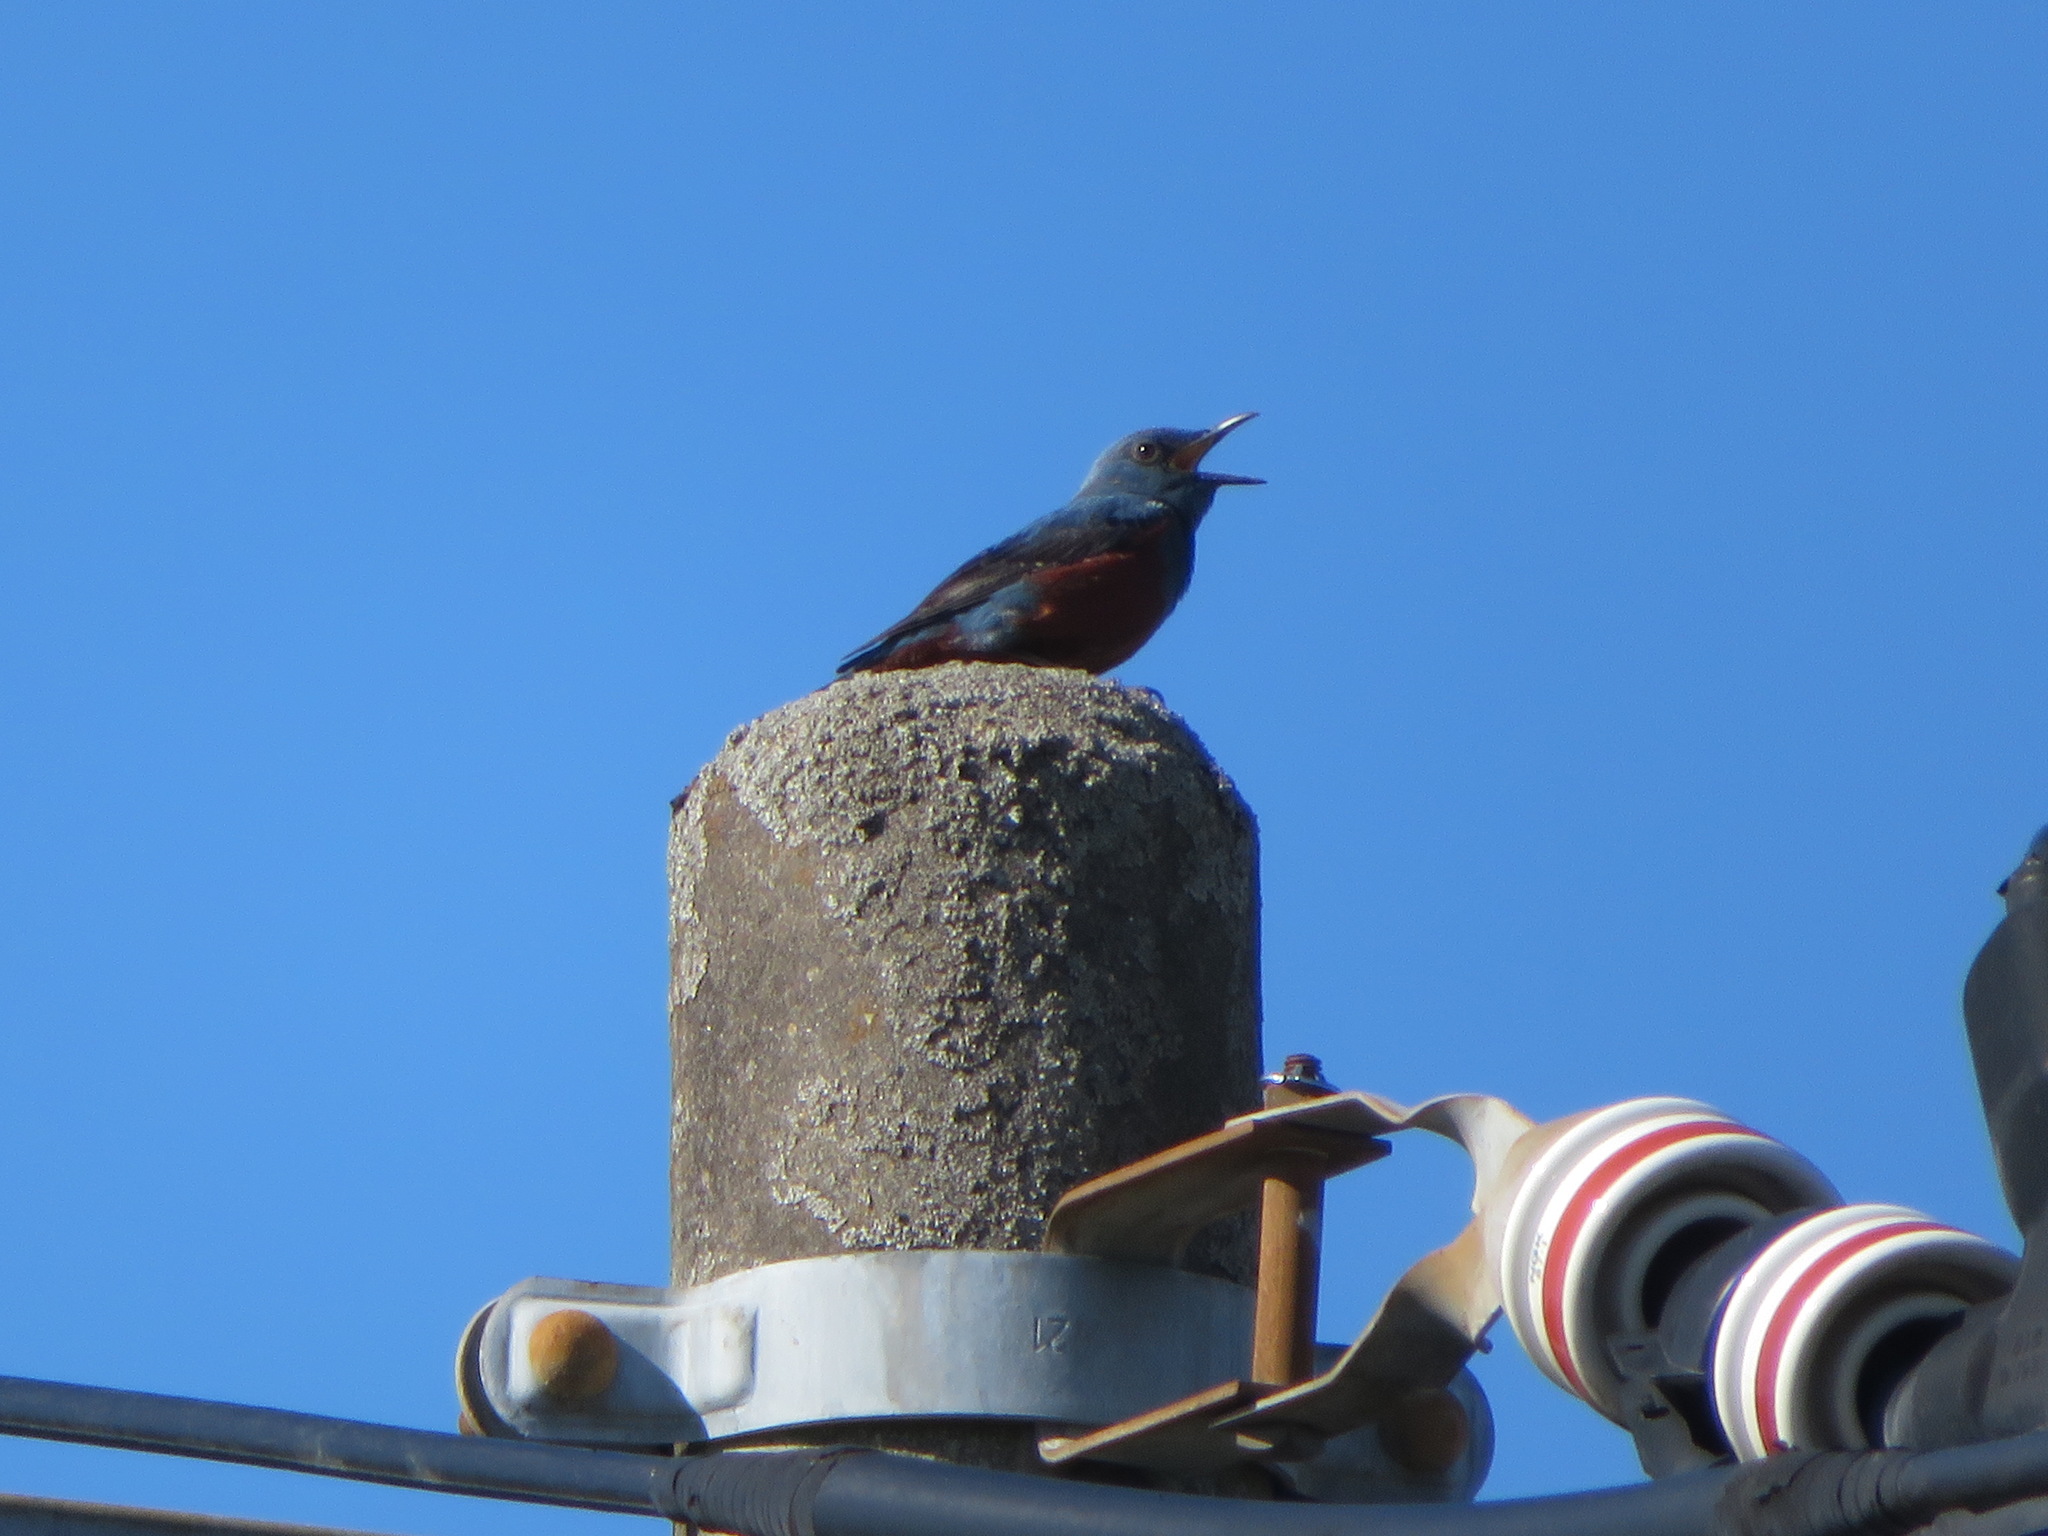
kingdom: Animalia
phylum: Chordata
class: Aves
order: Passeriformes
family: Muscicapidae
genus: Monticola
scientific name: Monticola solitarius
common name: Blue rock thrush
